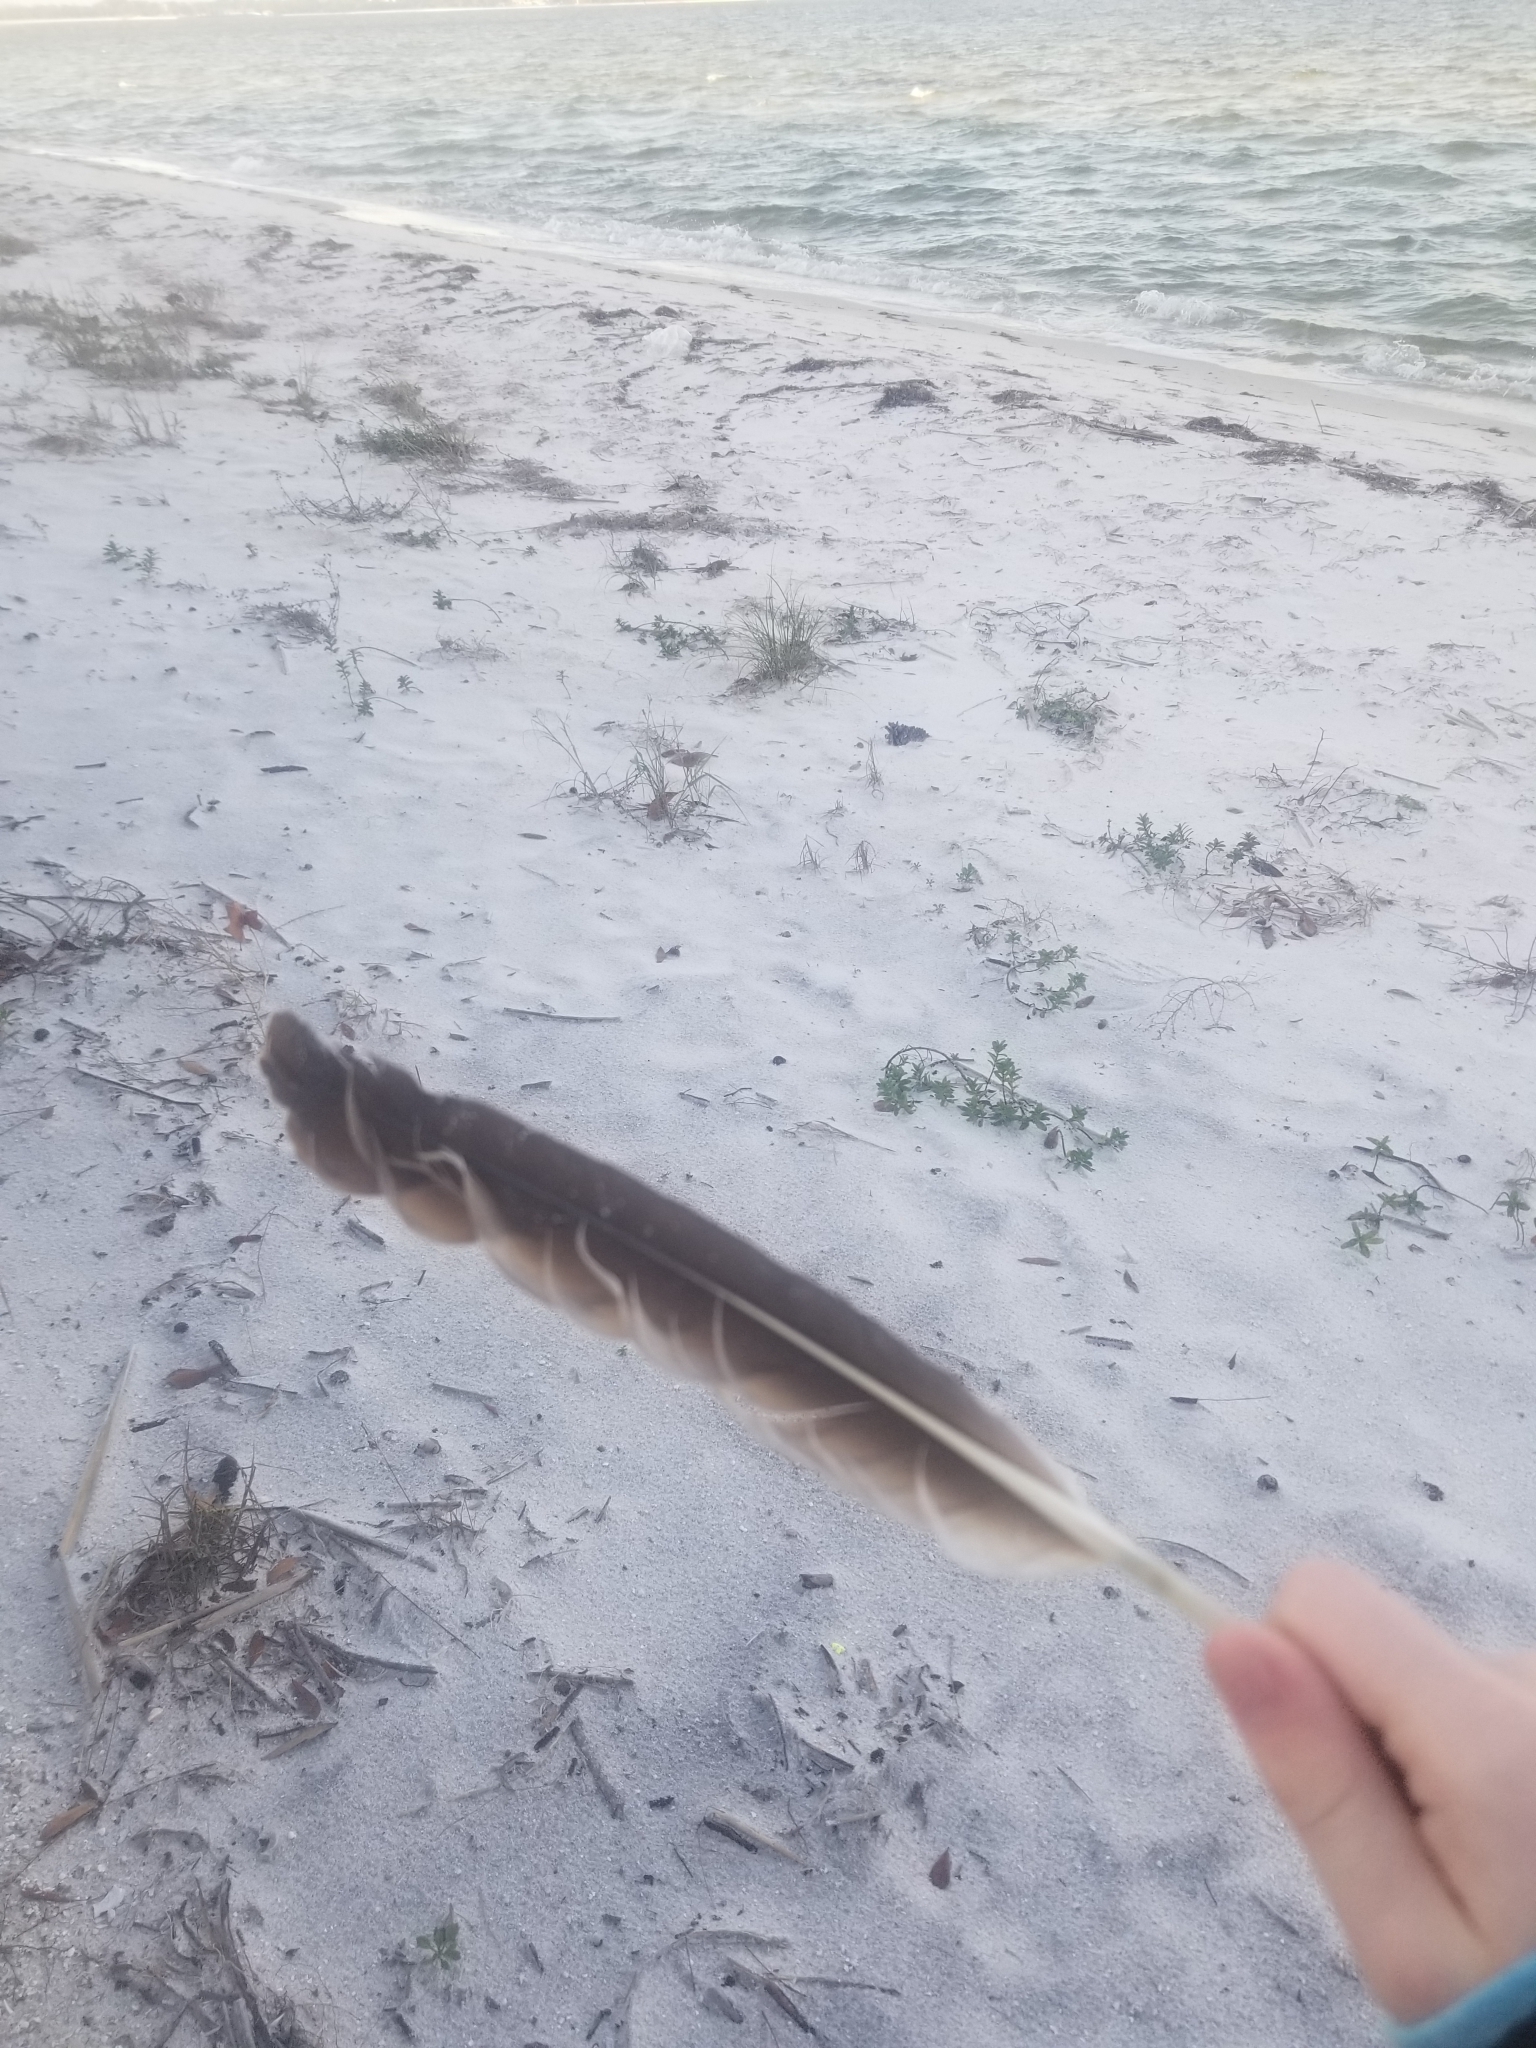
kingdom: Animalia
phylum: Chordata
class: Aves
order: Pelecaniformes
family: Pelecanidae
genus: Pelecanus
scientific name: Pelecanus occidentalis
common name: Brown pelican
